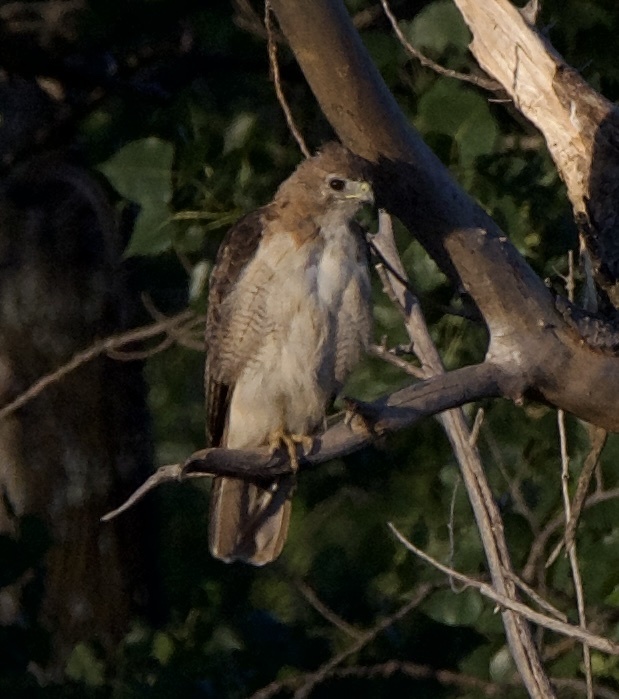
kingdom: Animalia
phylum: Chordata
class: Aves
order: Accipitriformes
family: Accipitridae
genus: Buteo
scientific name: Buteo jamaicensis
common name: Red-tailed hawk
